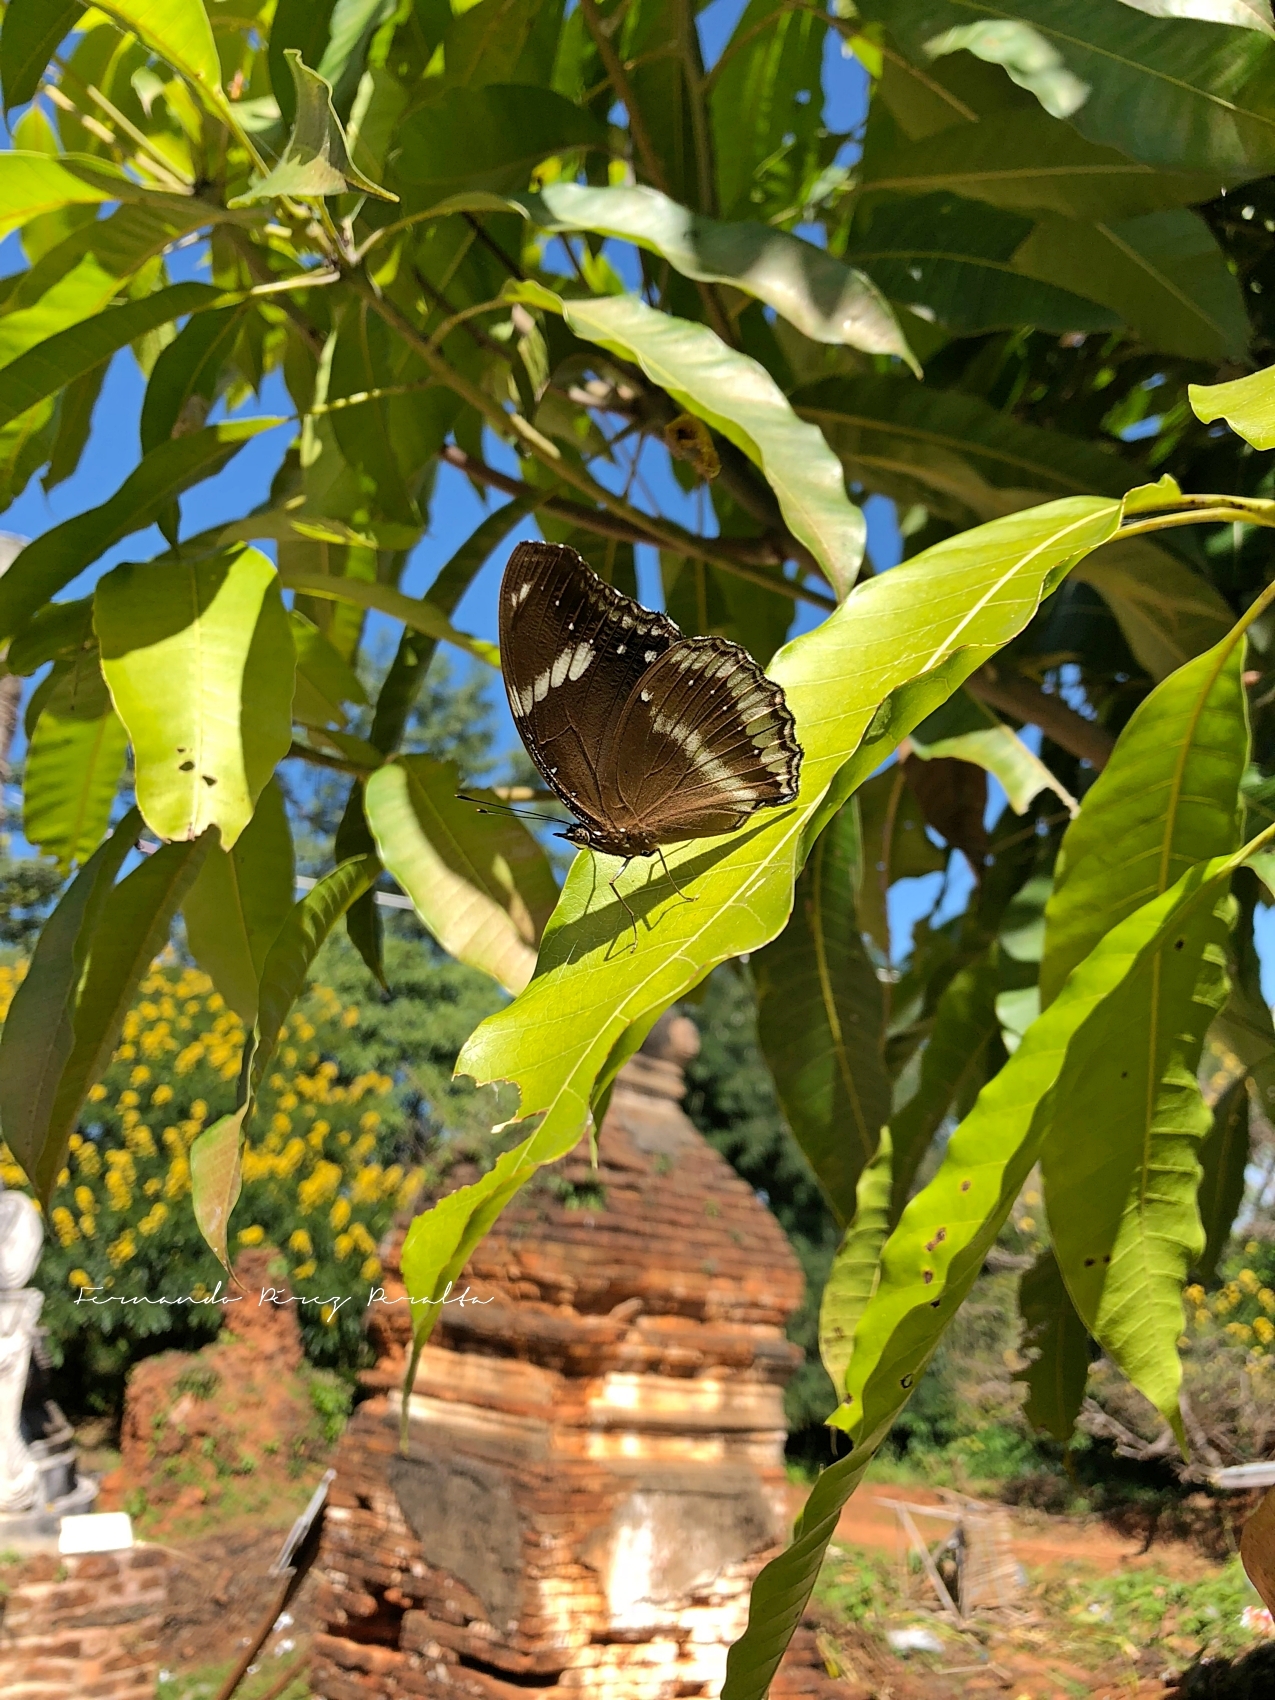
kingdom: Animalia
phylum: Arthropoda
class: Insecta
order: Lepidoptera
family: Nymphalidae
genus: Hypolimnas
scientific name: Hypolimnas bolina
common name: Great eggfly
